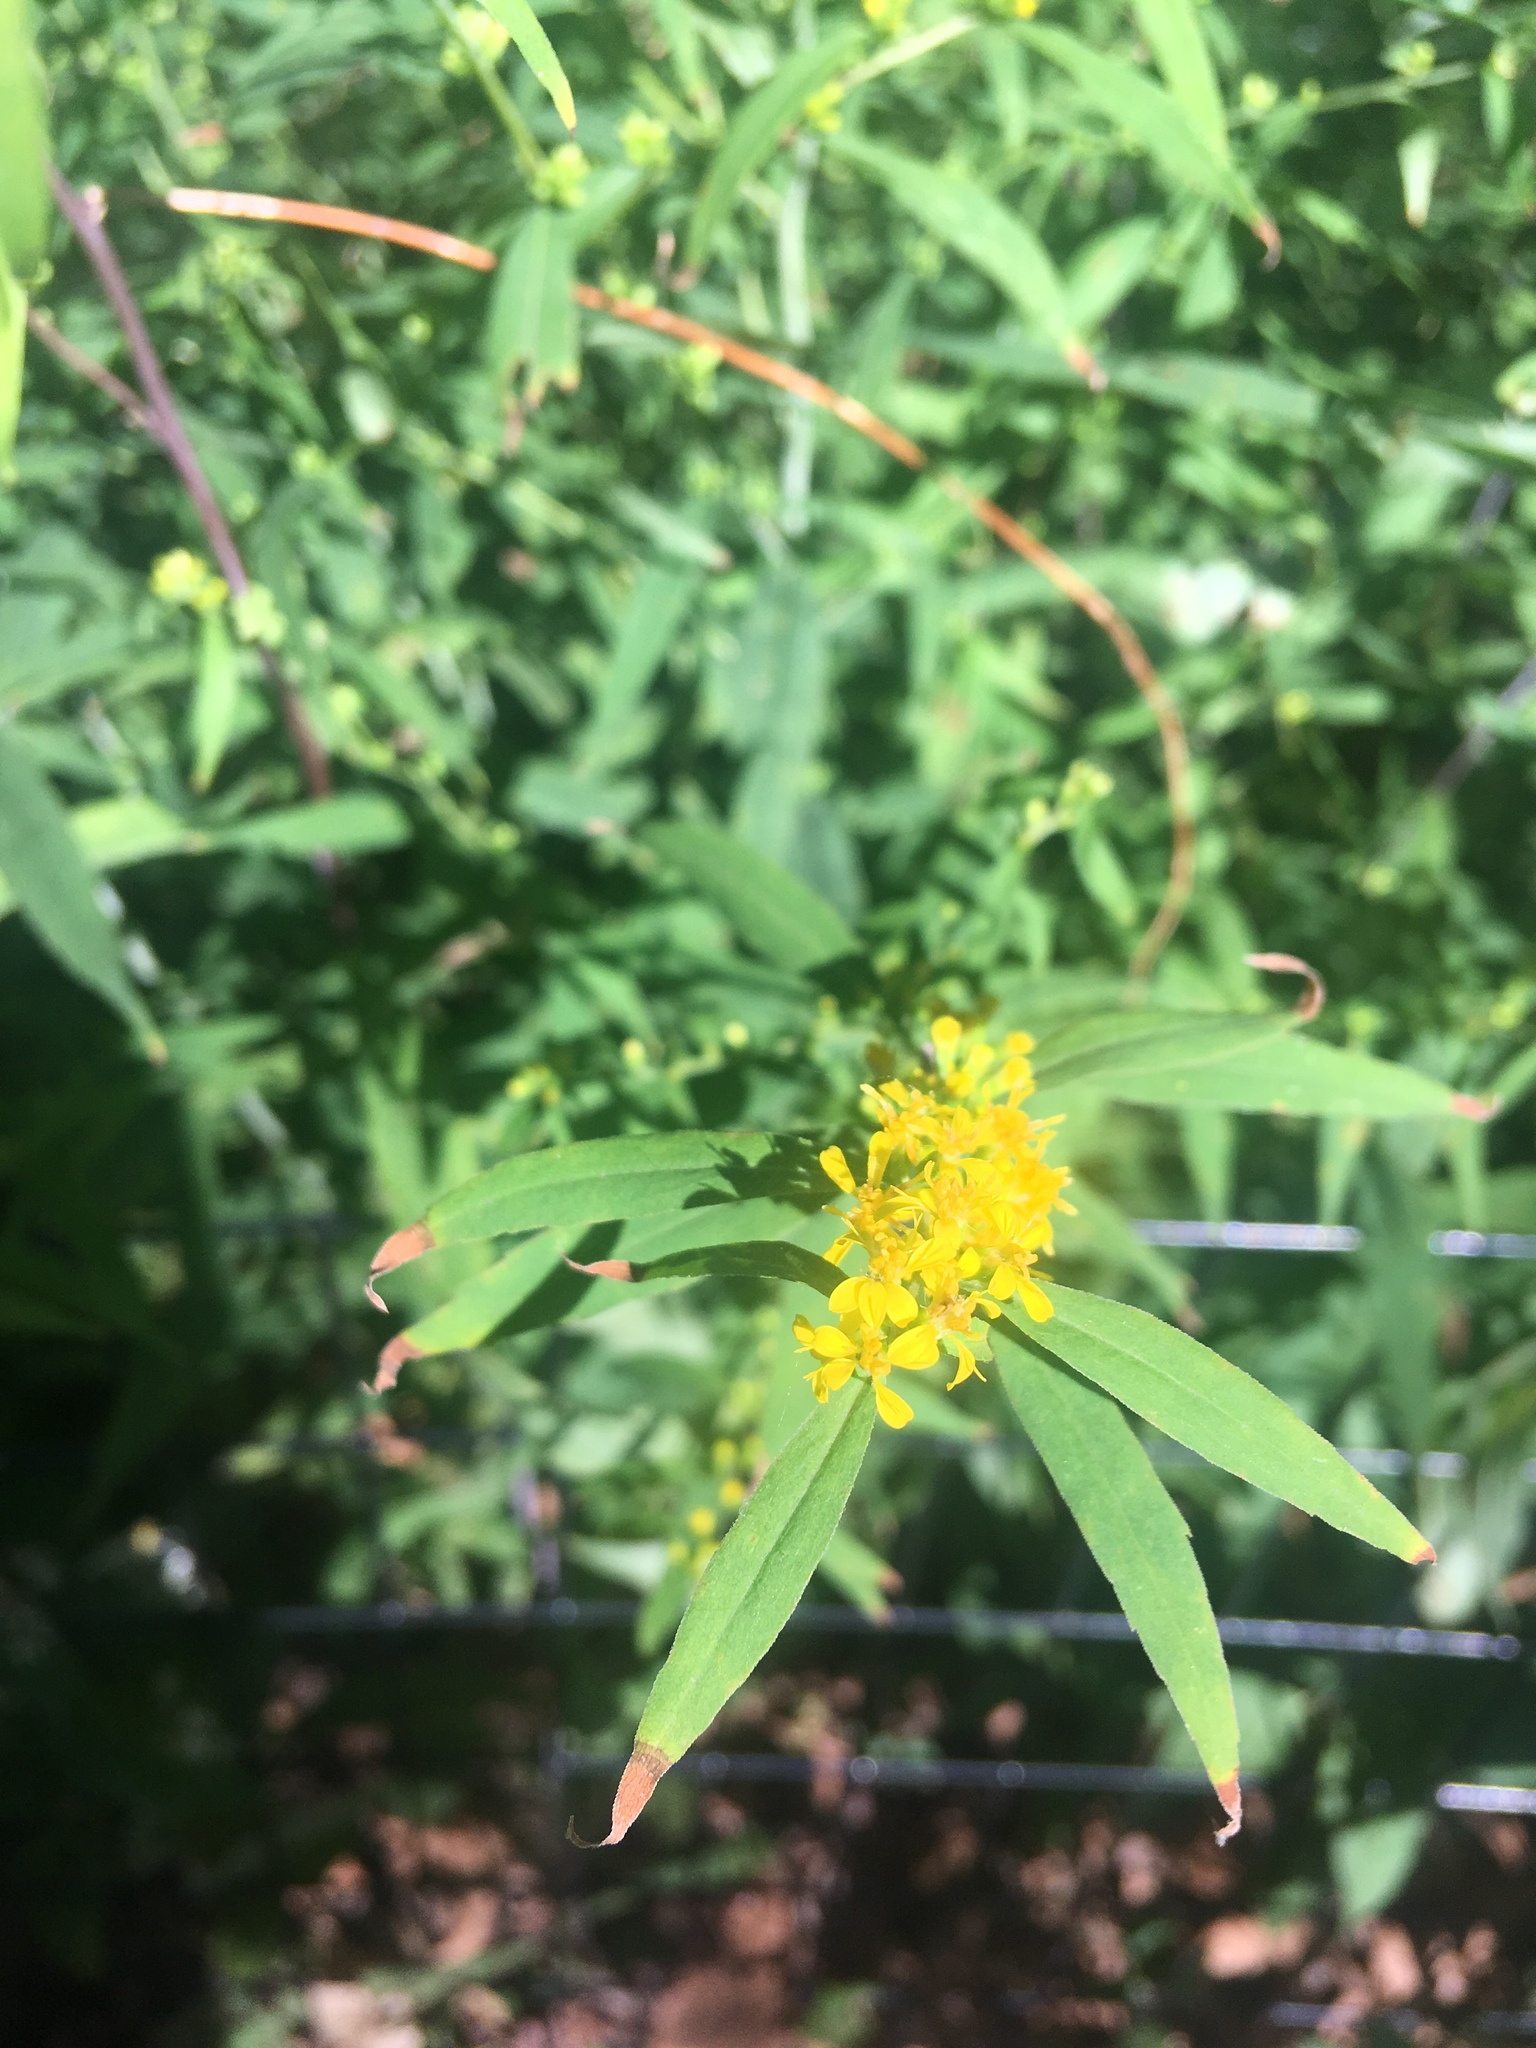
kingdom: Plantae
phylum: Tracheophyta
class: Magnoliopsida
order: Asterales
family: Asteraceae
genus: Solidago
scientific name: Solidago caesia
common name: Woodland goldenrod
